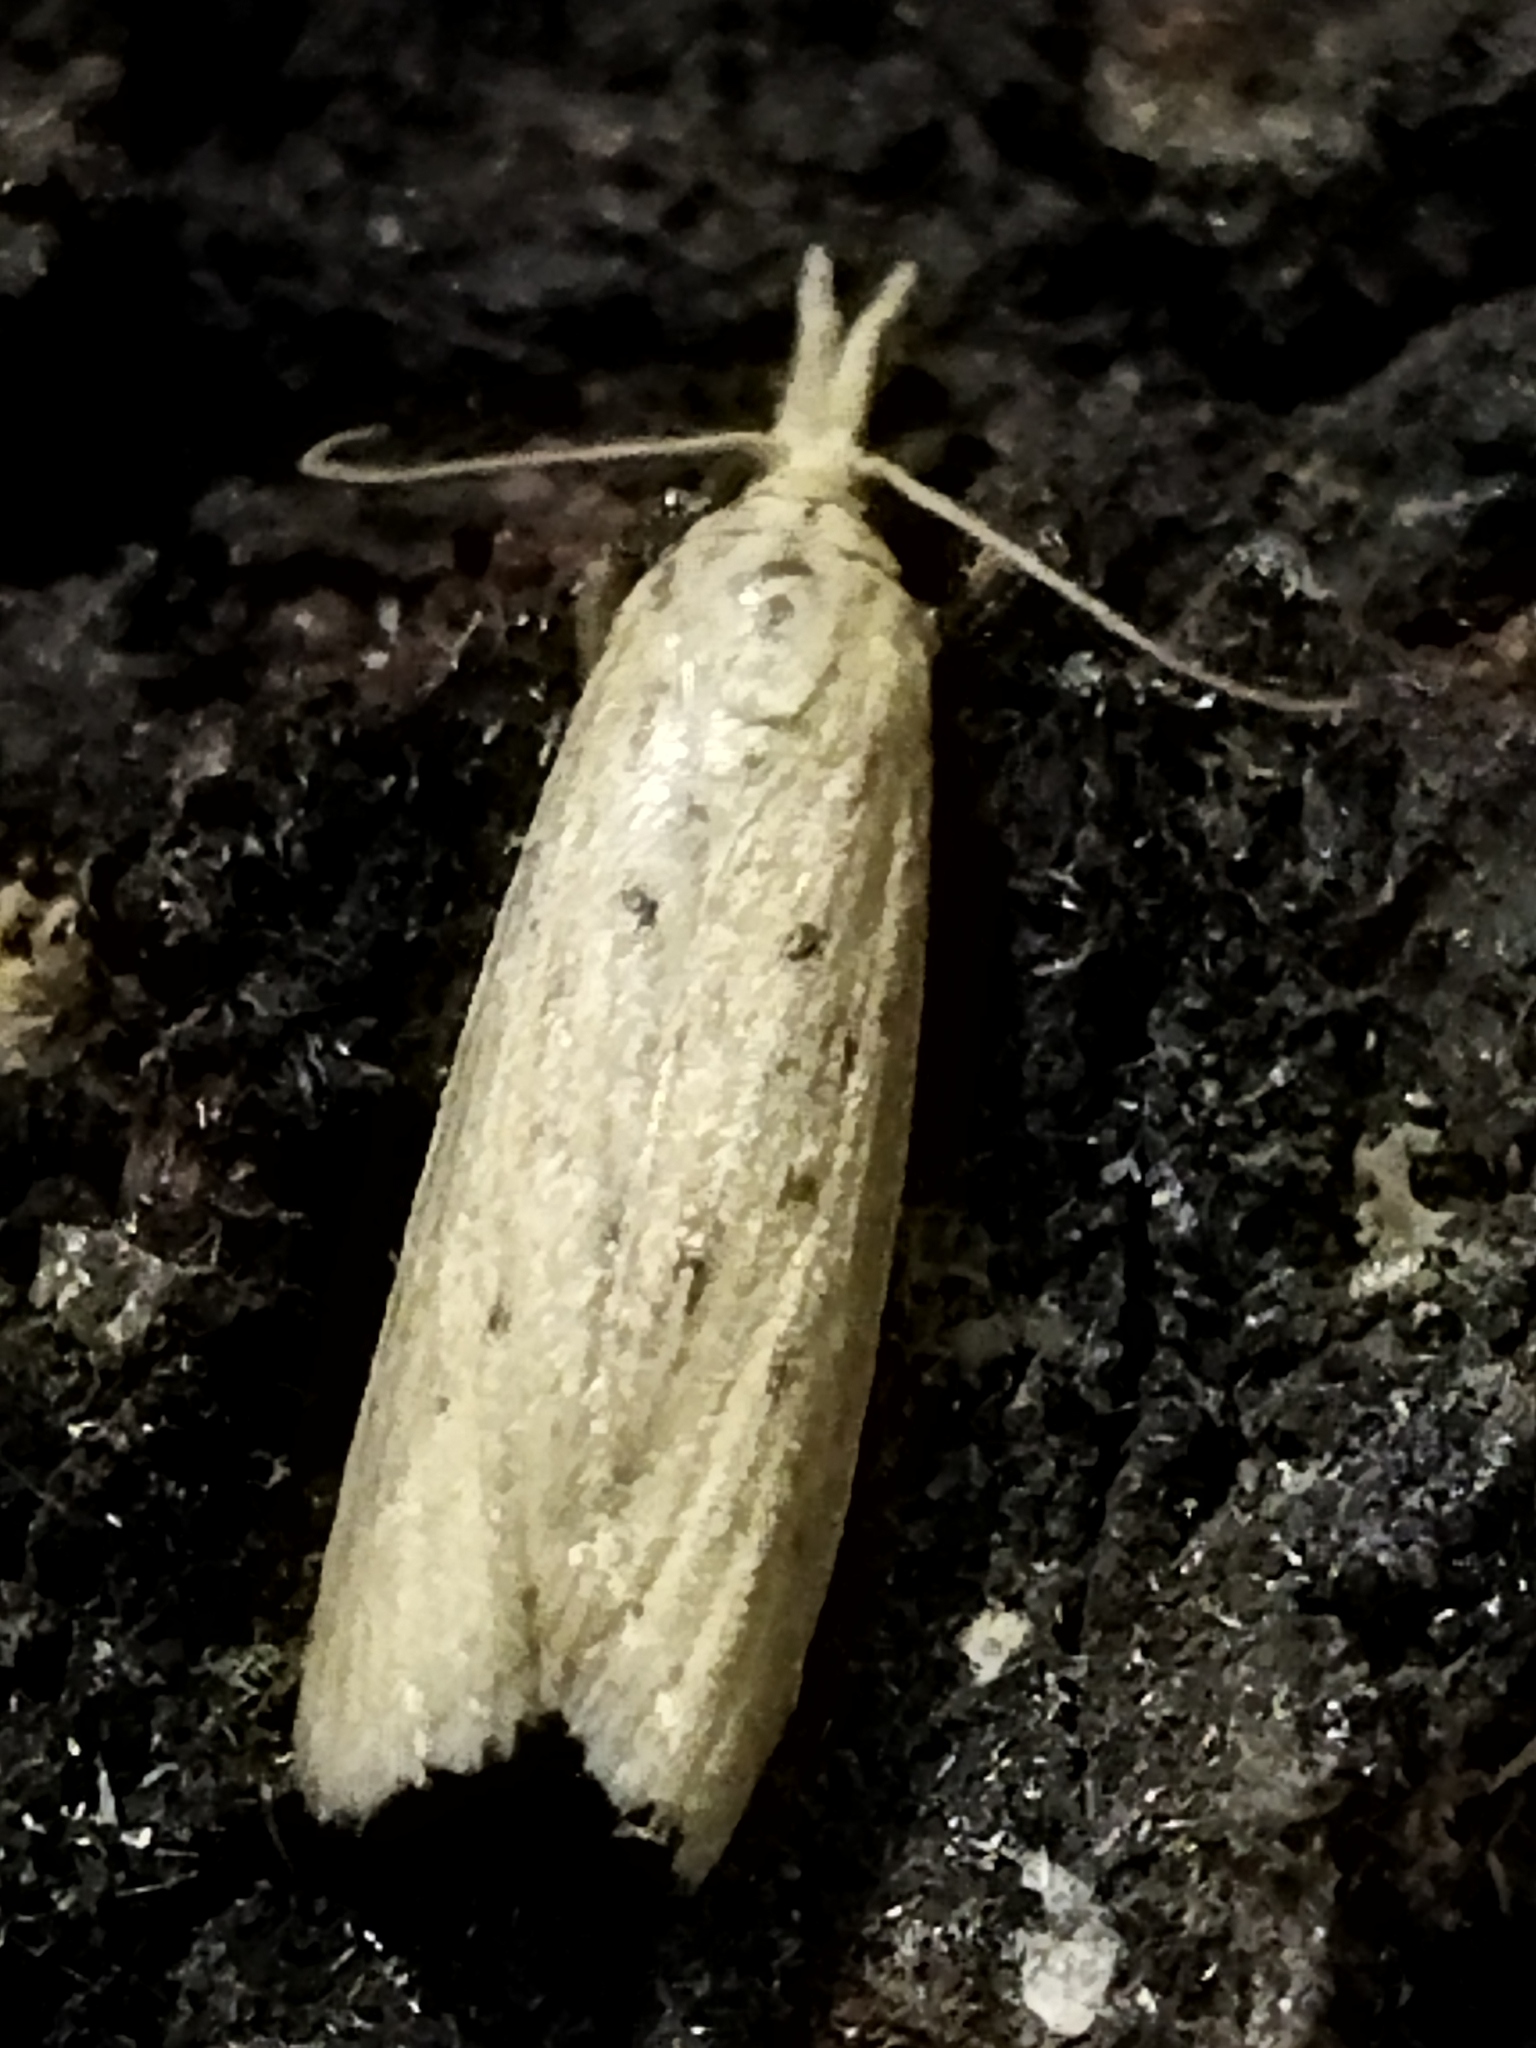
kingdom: Animalia
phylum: Arthropoda
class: Insecta
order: Lepidoptera
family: Pyralidae
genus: Ematheudes
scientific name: Ematheudes punctellus
